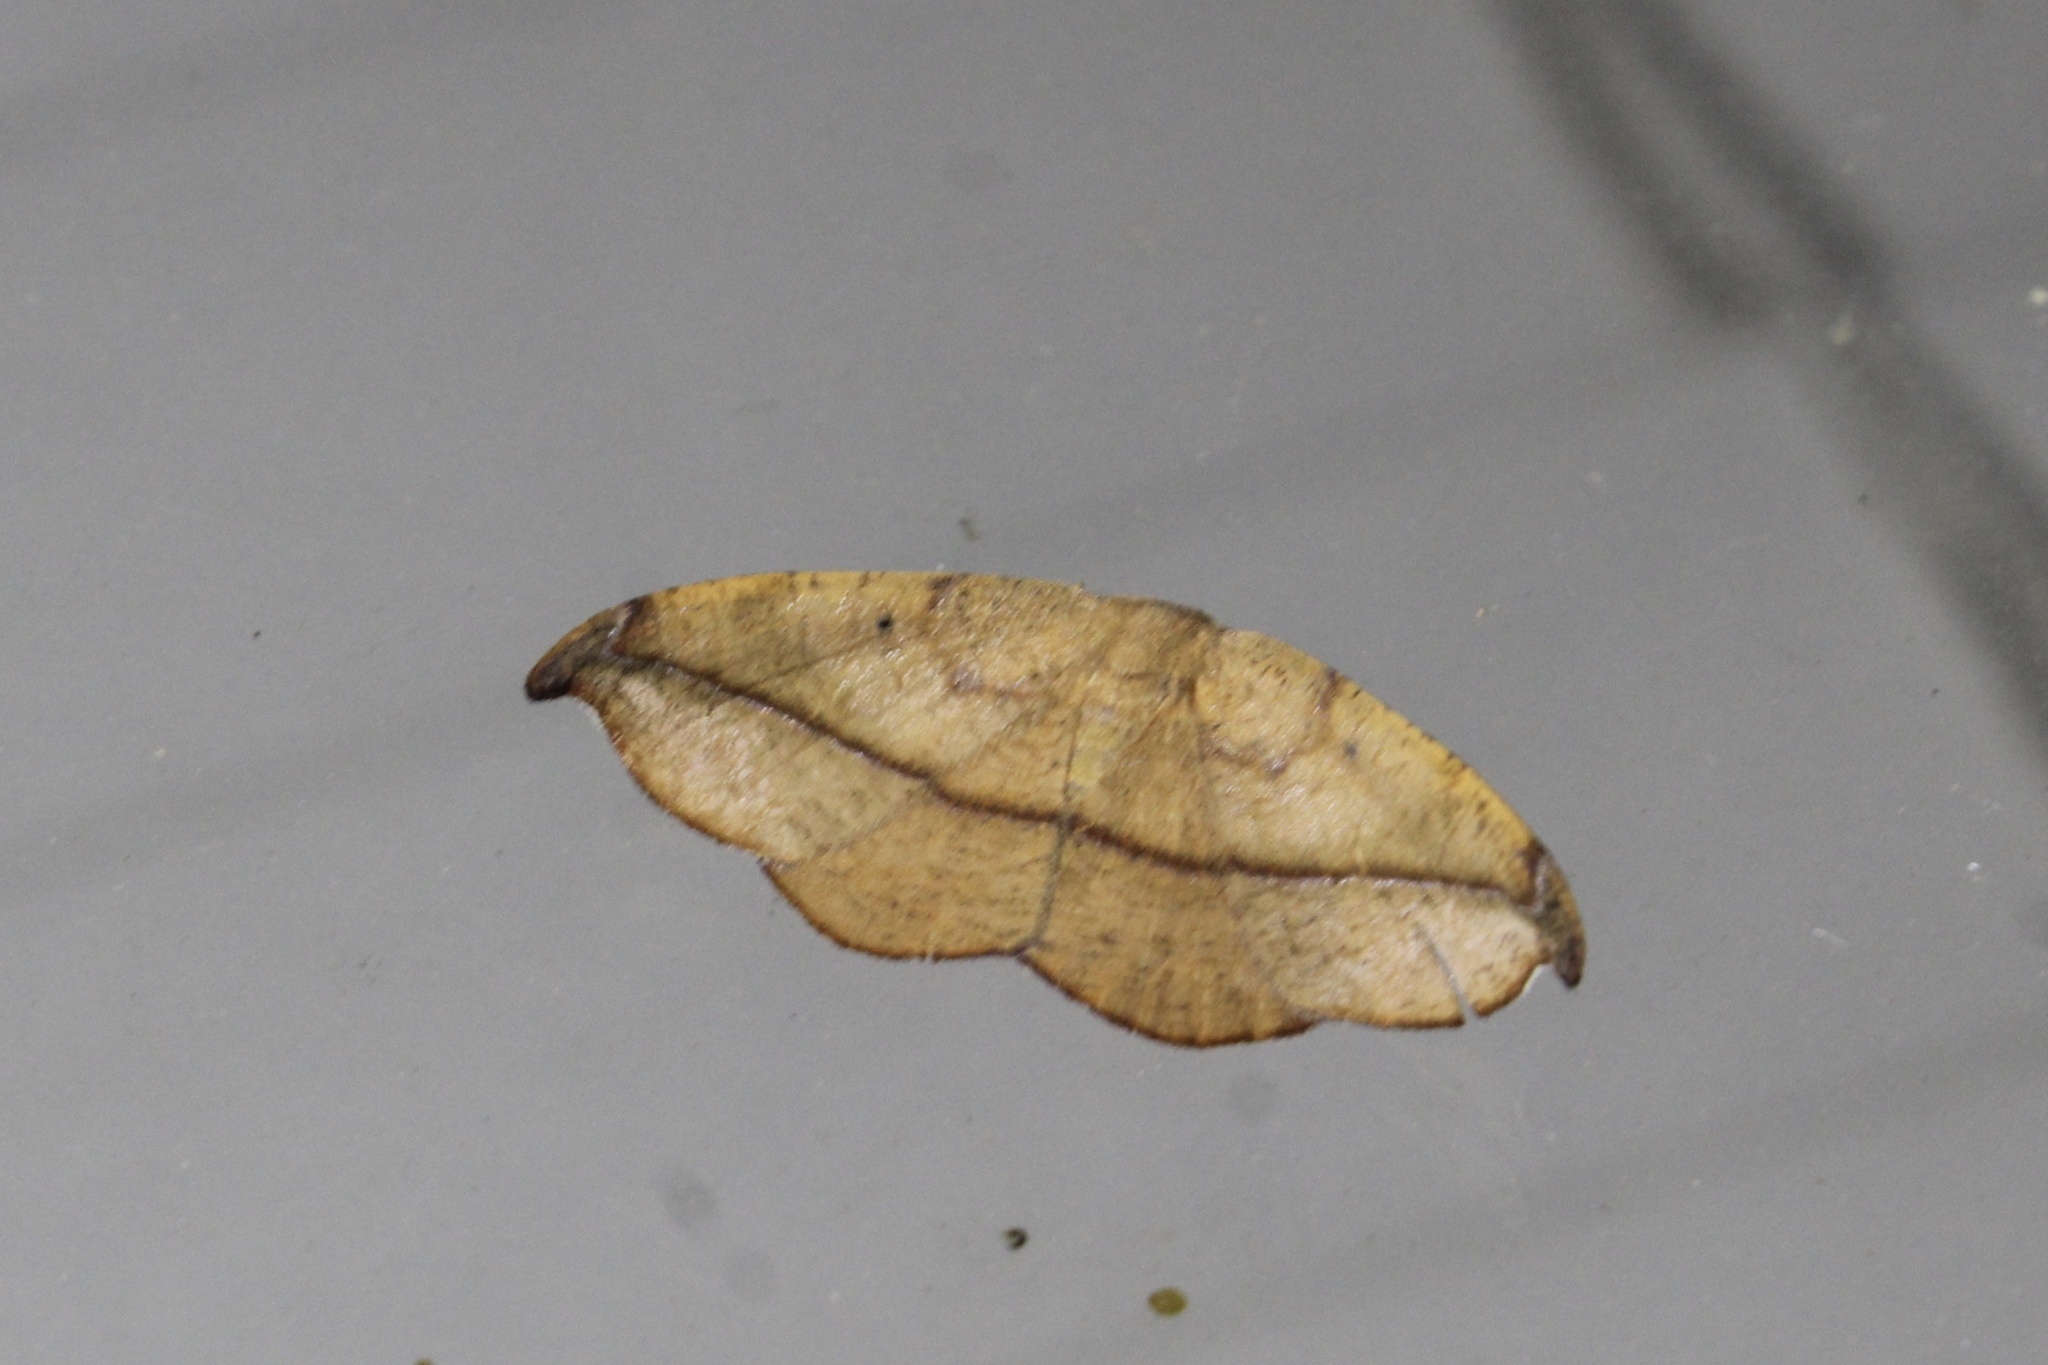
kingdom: Animalia
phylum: Arthropoda
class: Insecta
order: Lepidoptera
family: Geometridae
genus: Patalene
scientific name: Patalene olyzonaria
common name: Juniper geometer moth
